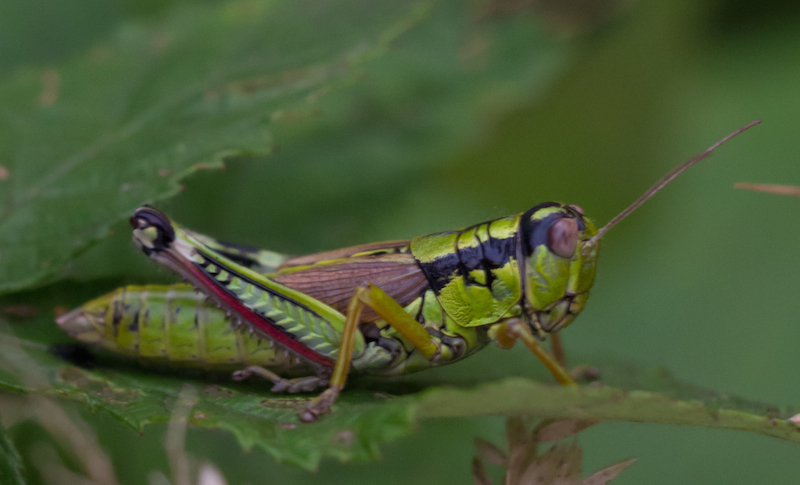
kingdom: Animalia
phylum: Arthropoda
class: Insecta
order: Orthoptera
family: Acrididae
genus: Miramella
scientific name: Miramella alpina
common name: Green mountain grasshopper
